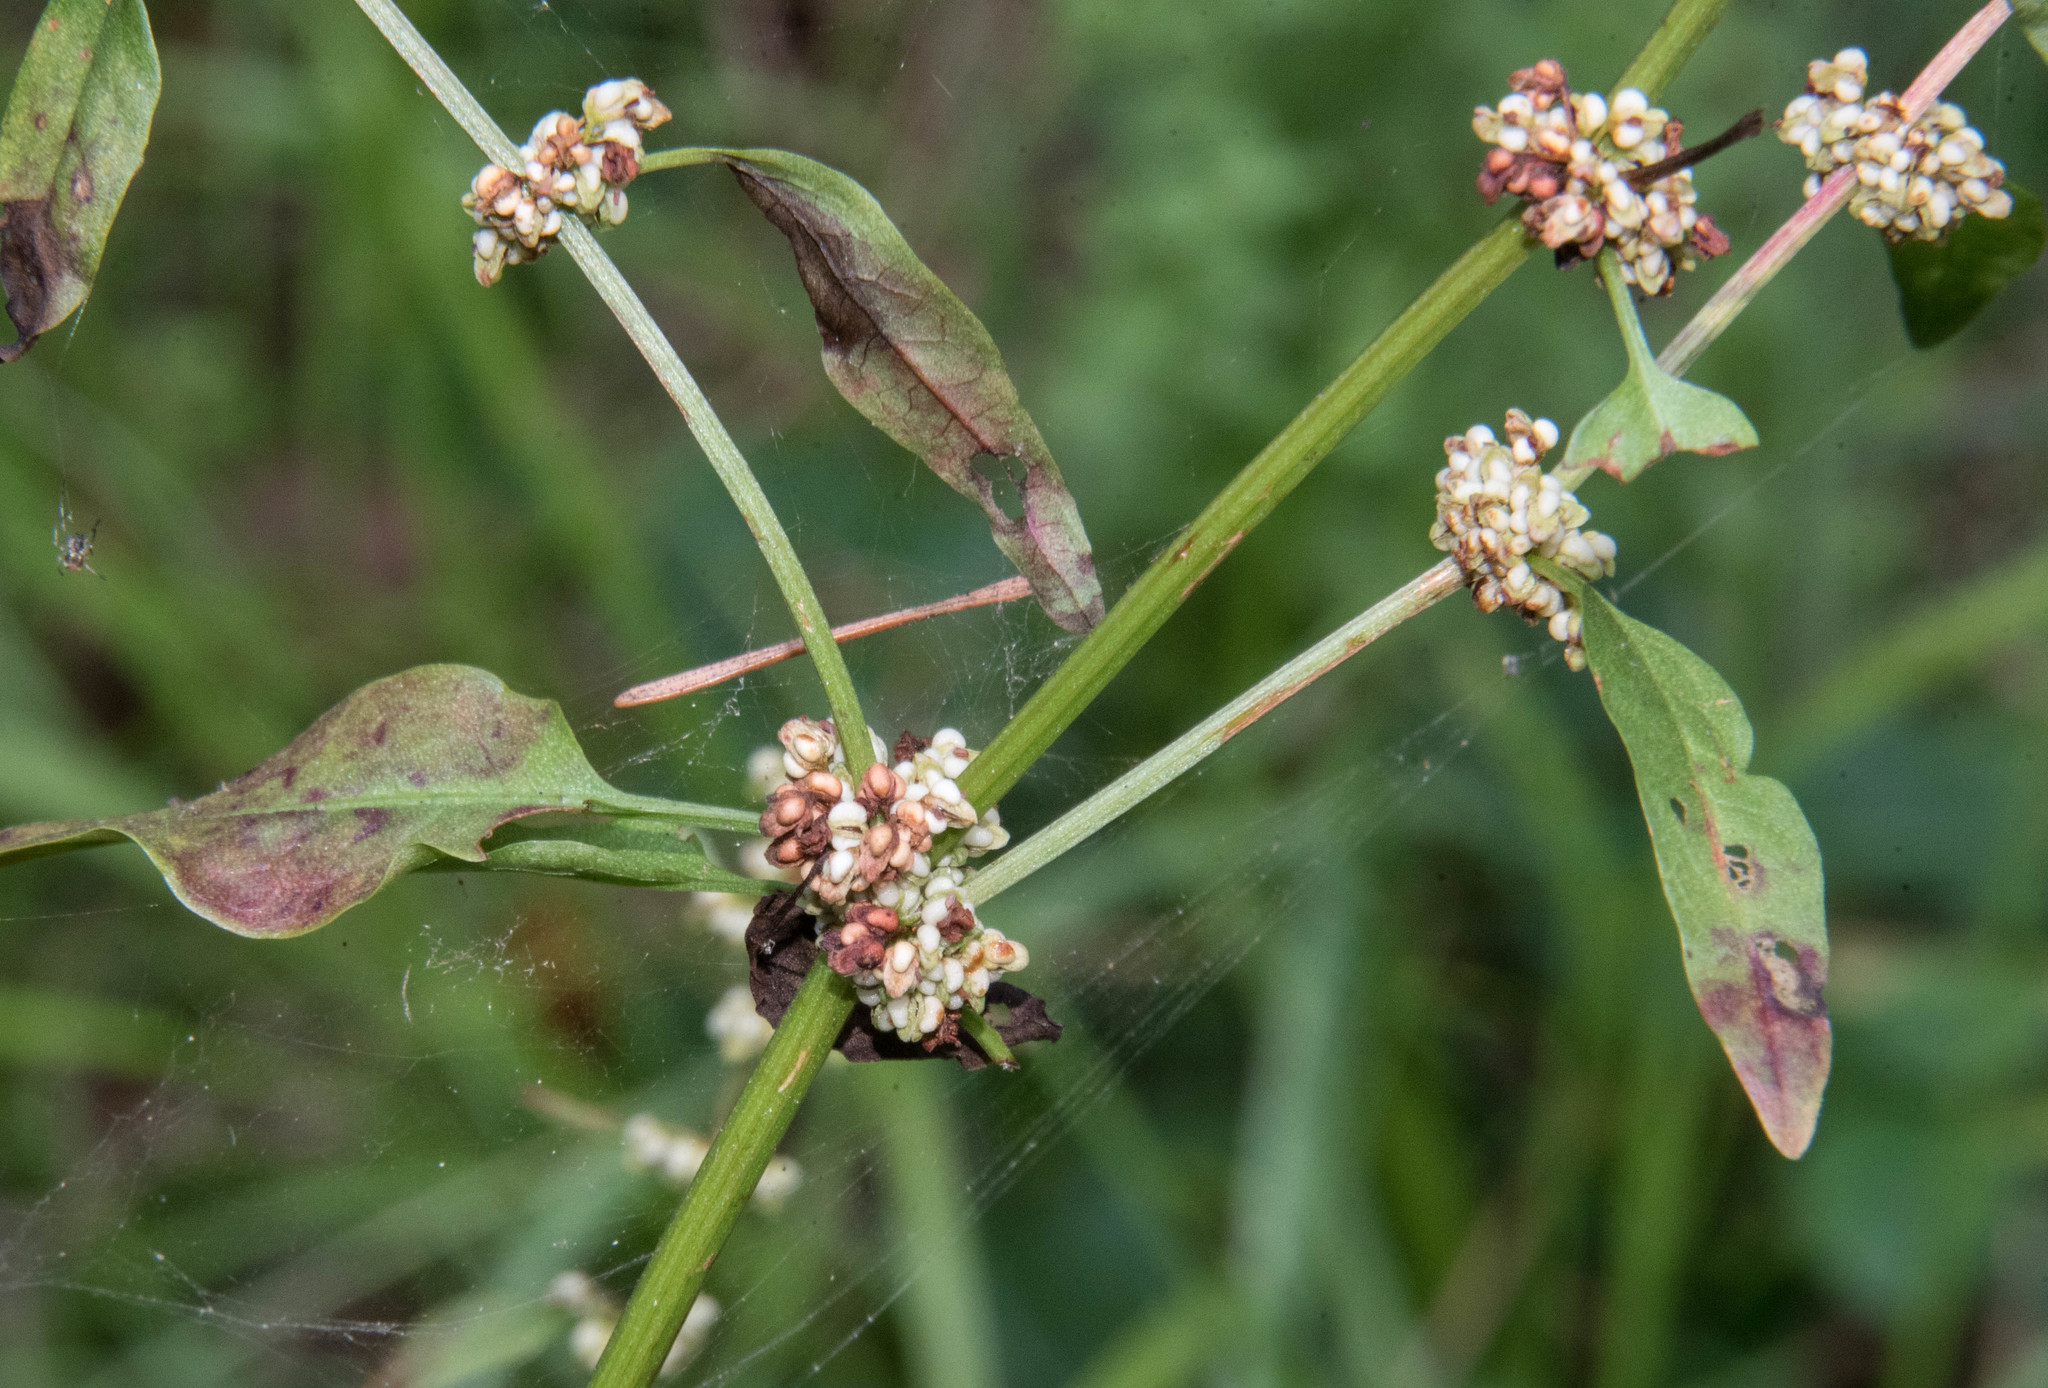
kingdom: Plantae
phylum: Tracheophyta
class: Magnoliopsida
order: Caryophyllales
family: Polygonaceae
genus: Rumex
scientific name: Rumex conglomeratus
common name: Clustered dock
